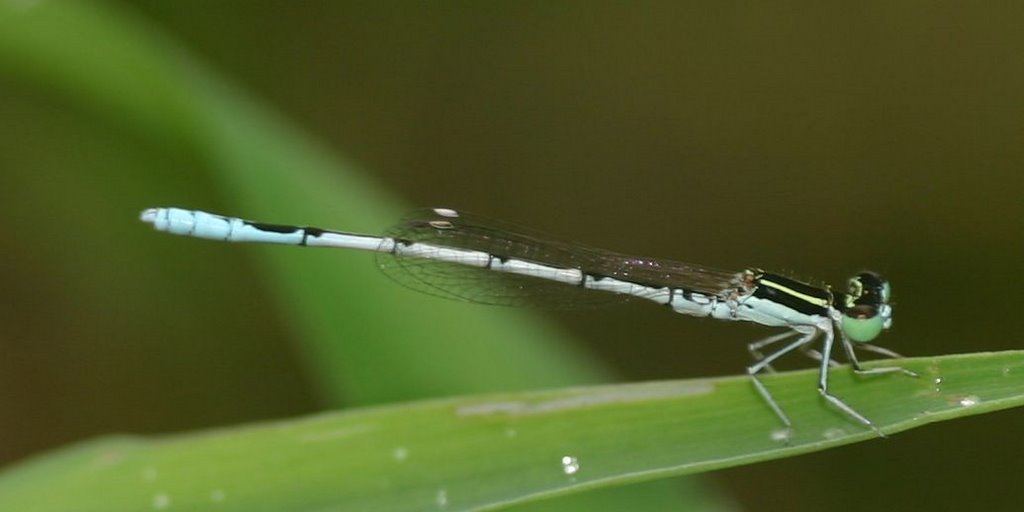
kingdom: Animalia
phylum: Arthropoda
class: Insecta
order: Odonata
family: Coenagrionidae
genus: Agriocnemis
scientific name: Agriocnemis pieris
